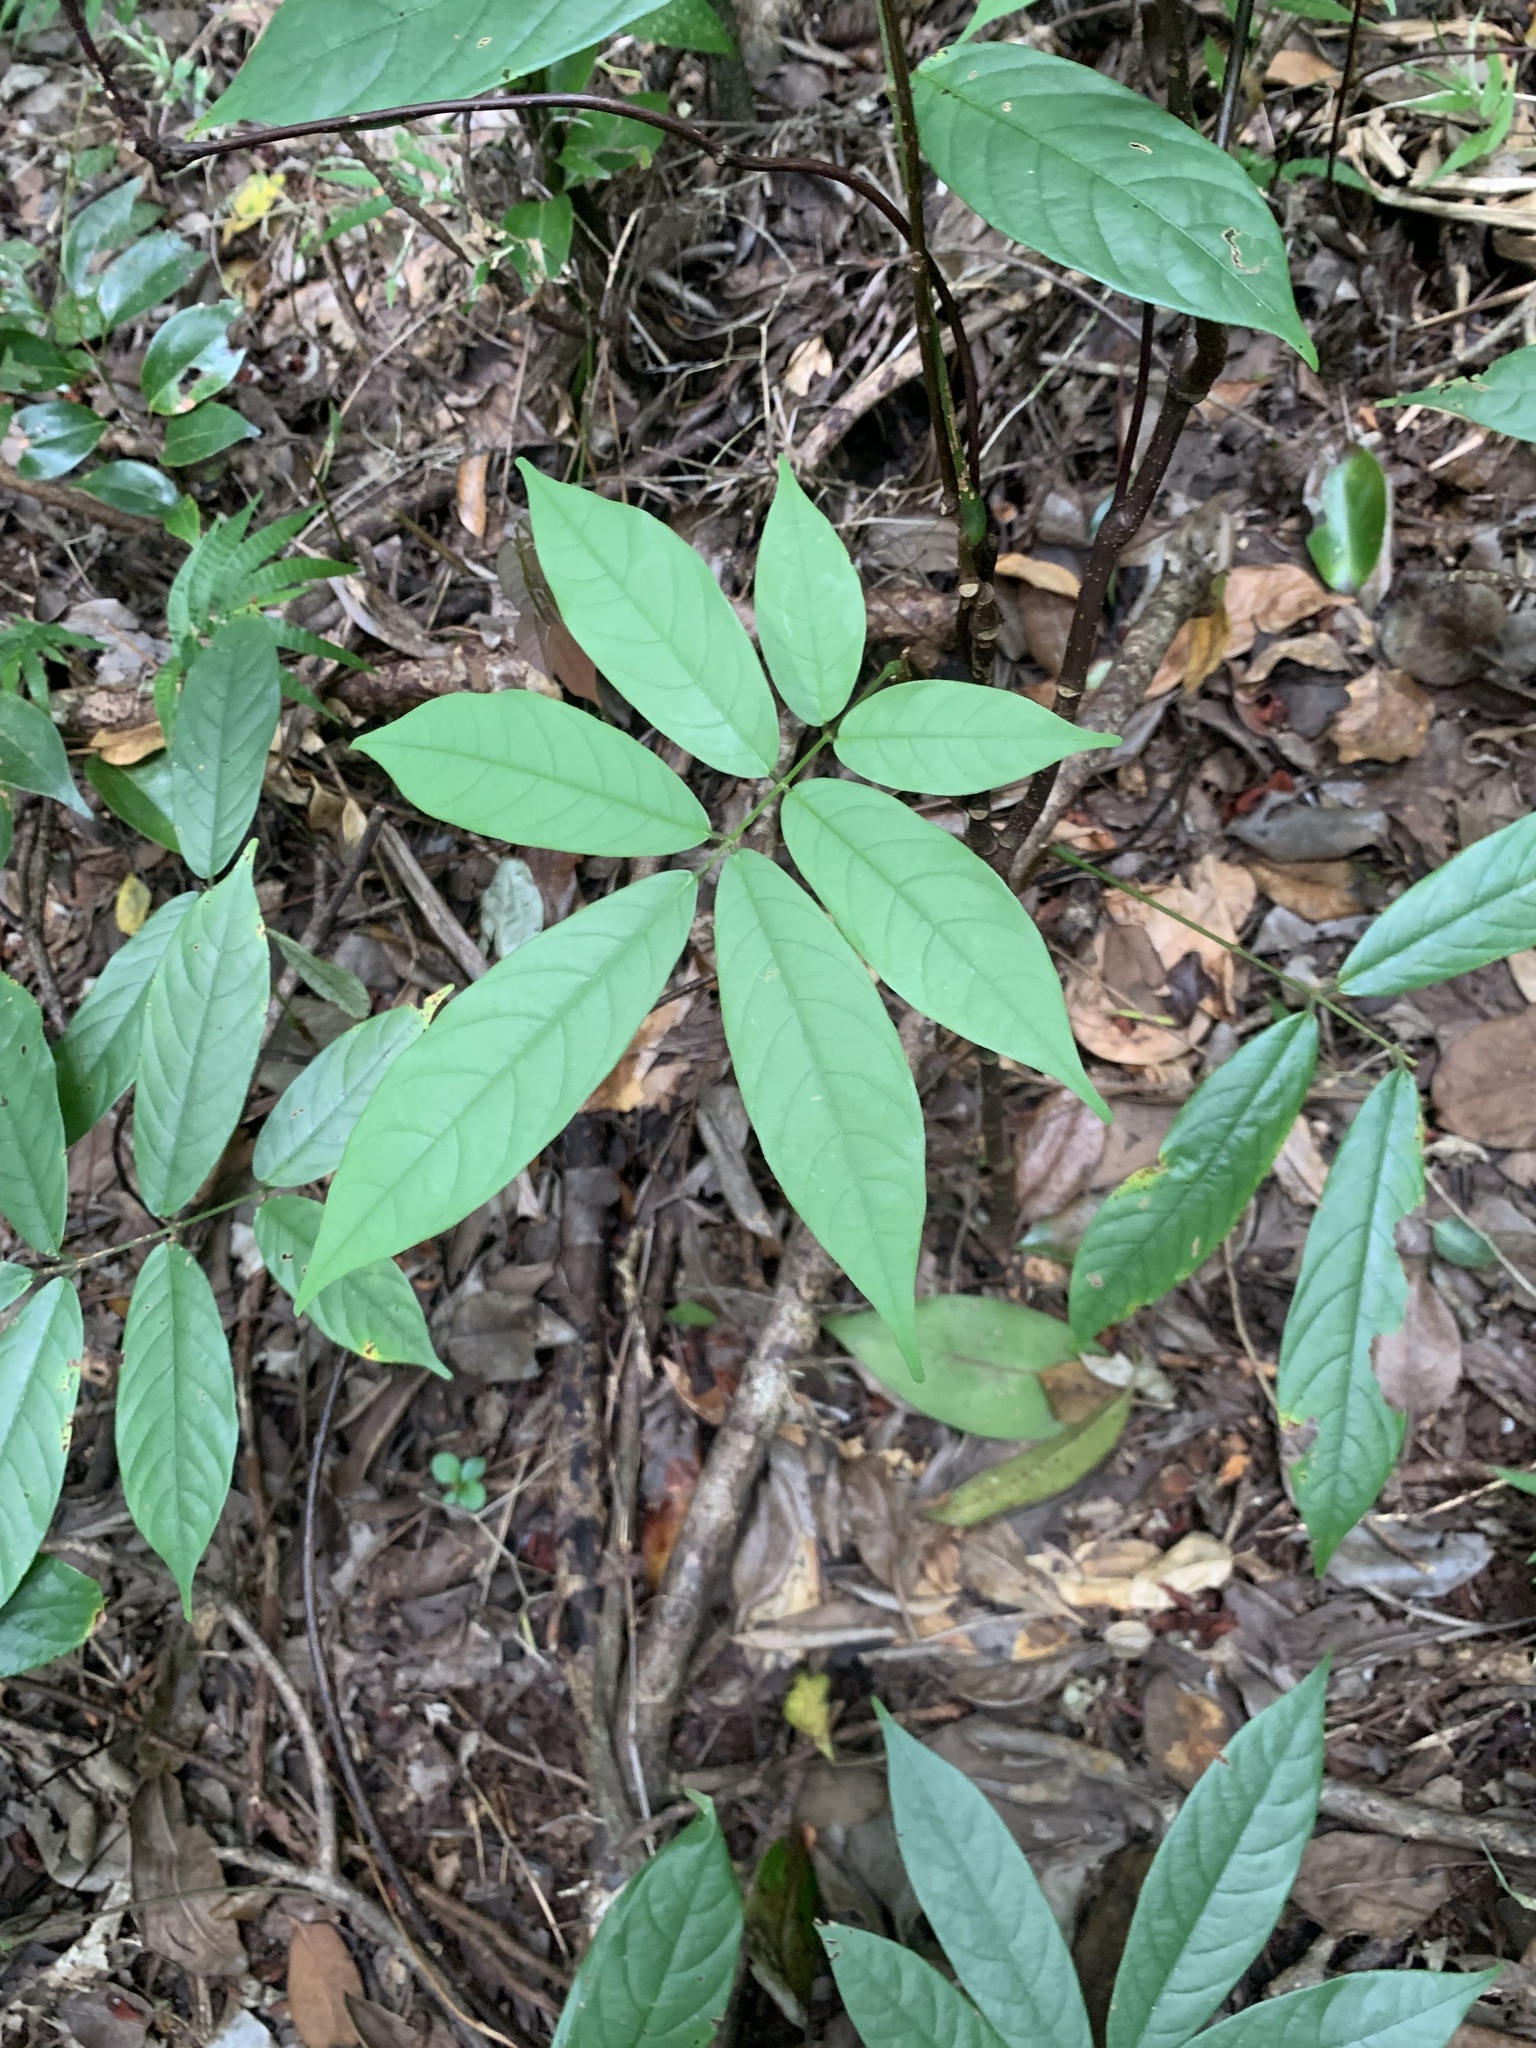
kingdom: Plantae
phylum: Tracheophyta
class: Magnoliopsida
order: Fabales
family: Fabaceae
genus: Millettia
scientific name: Millettia pachycarpa
